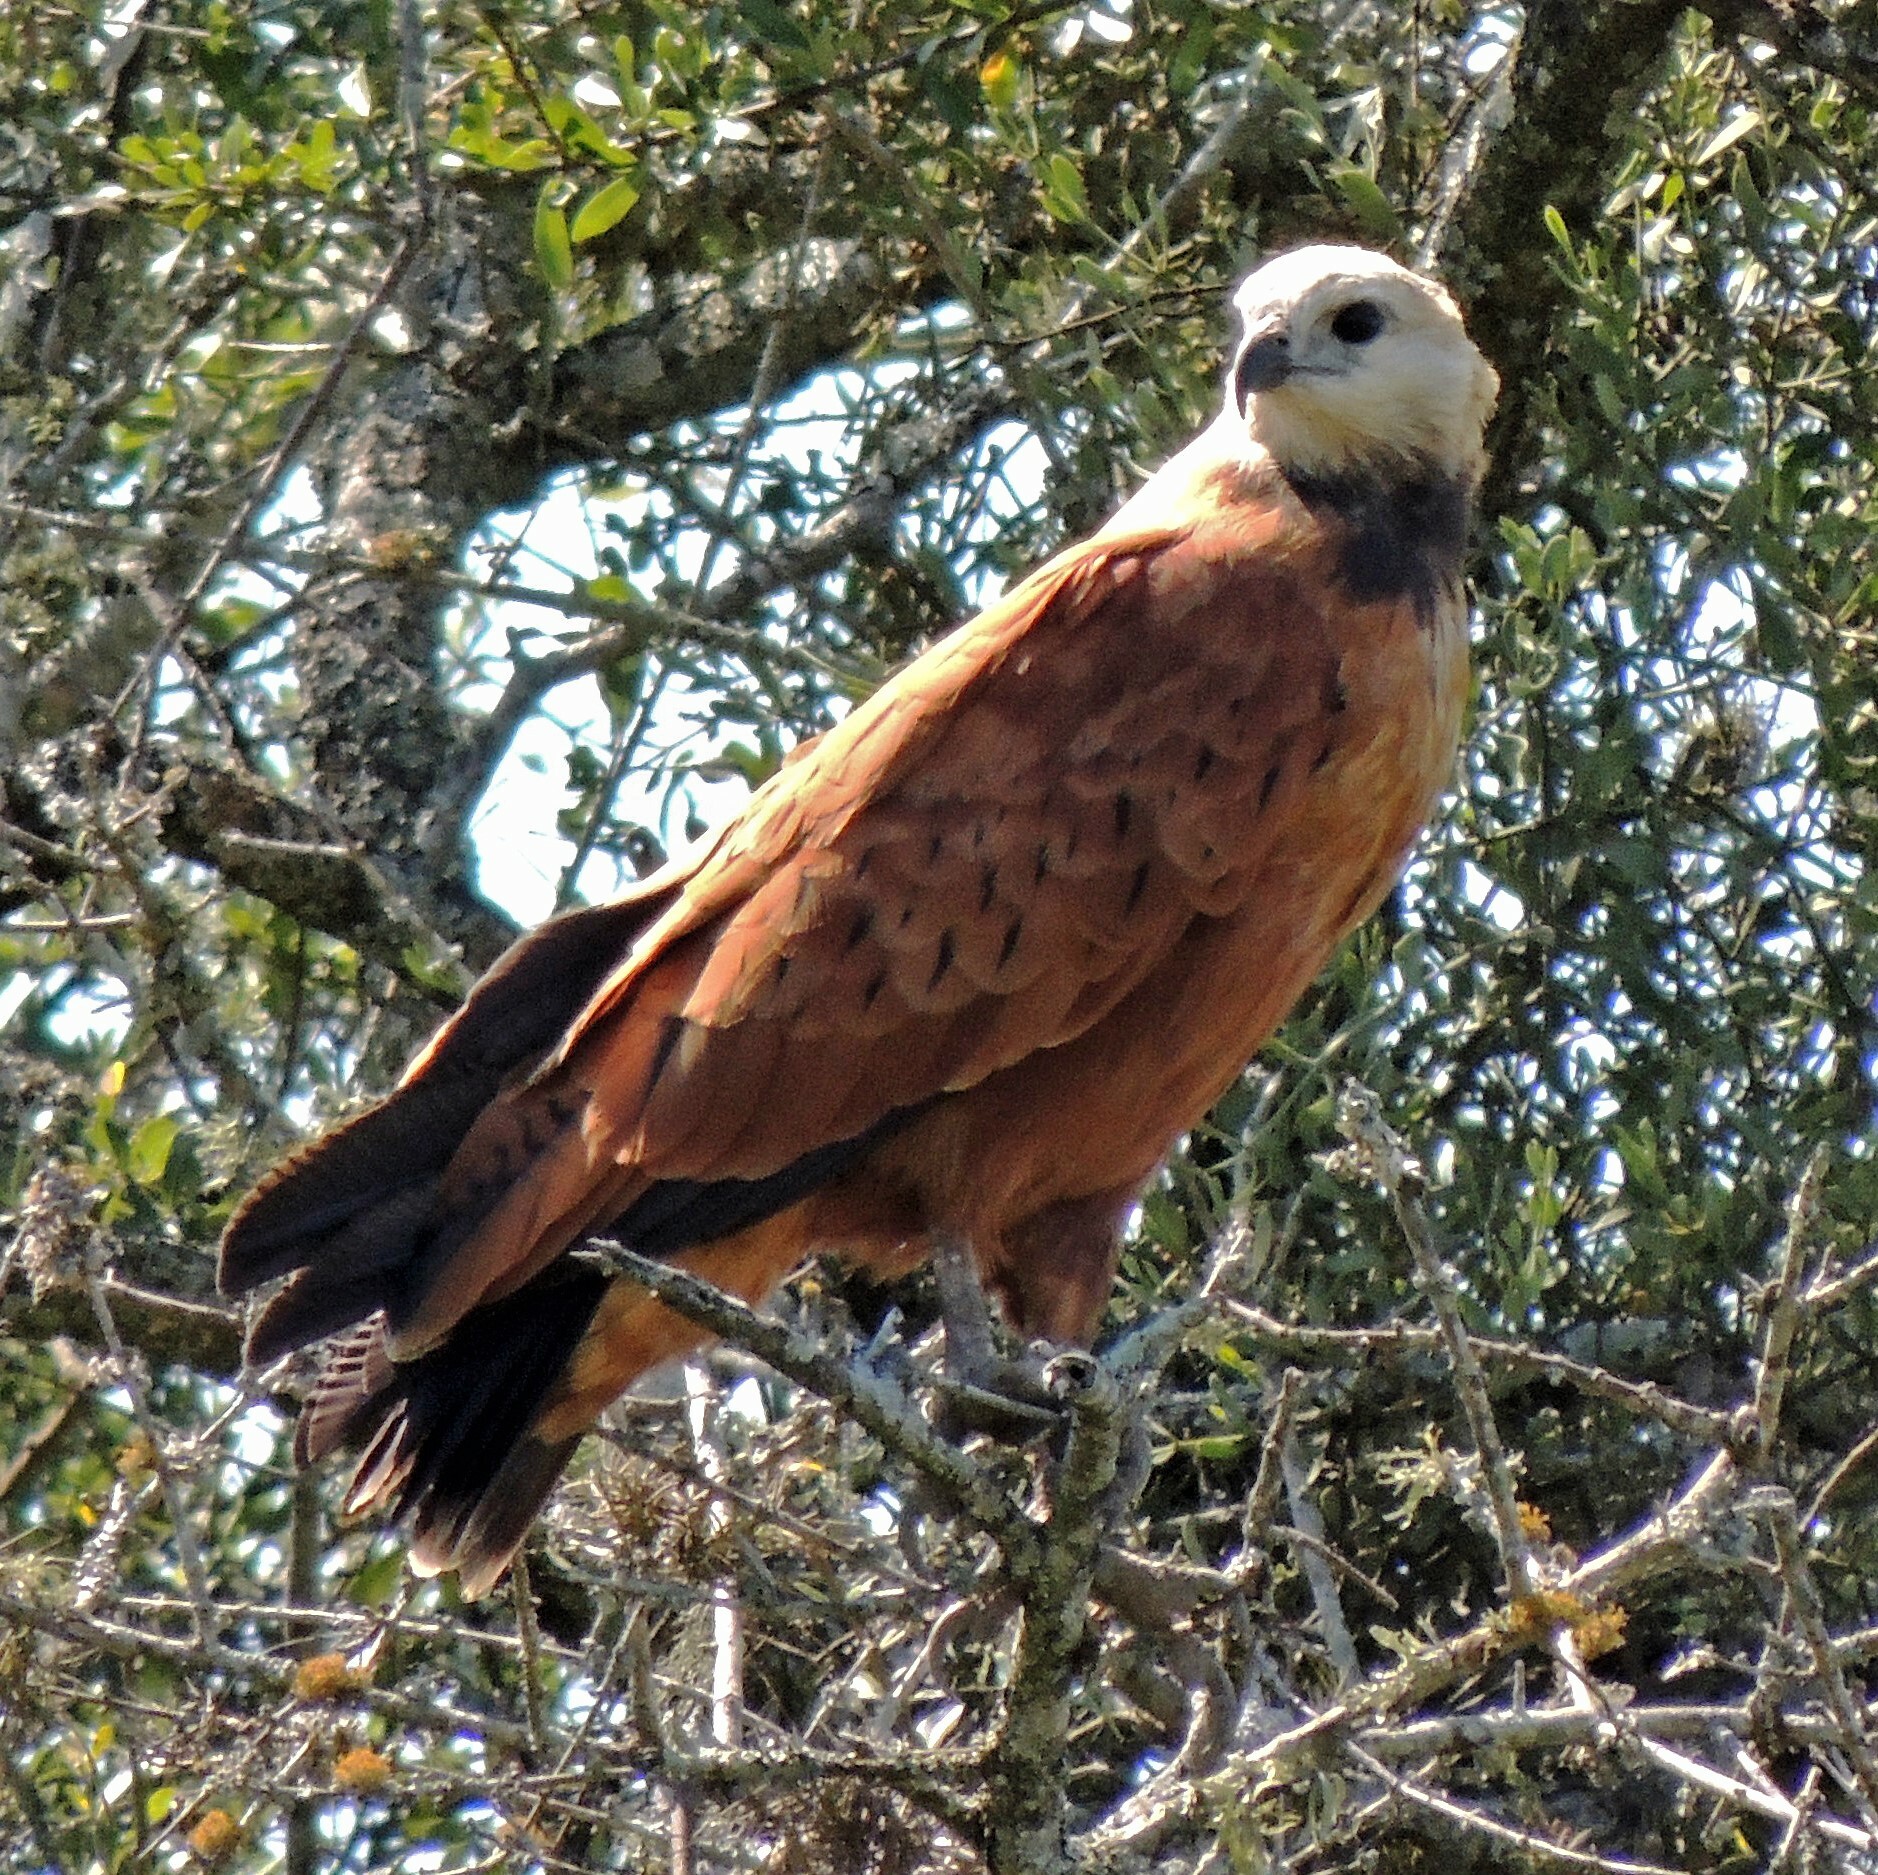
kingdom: Animalia
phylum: Chordata
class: Aves
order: Accipitriformes
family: Accipitridae
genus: Busarellus
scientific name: Busarellus nigricollis
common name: Black-collared hawk
